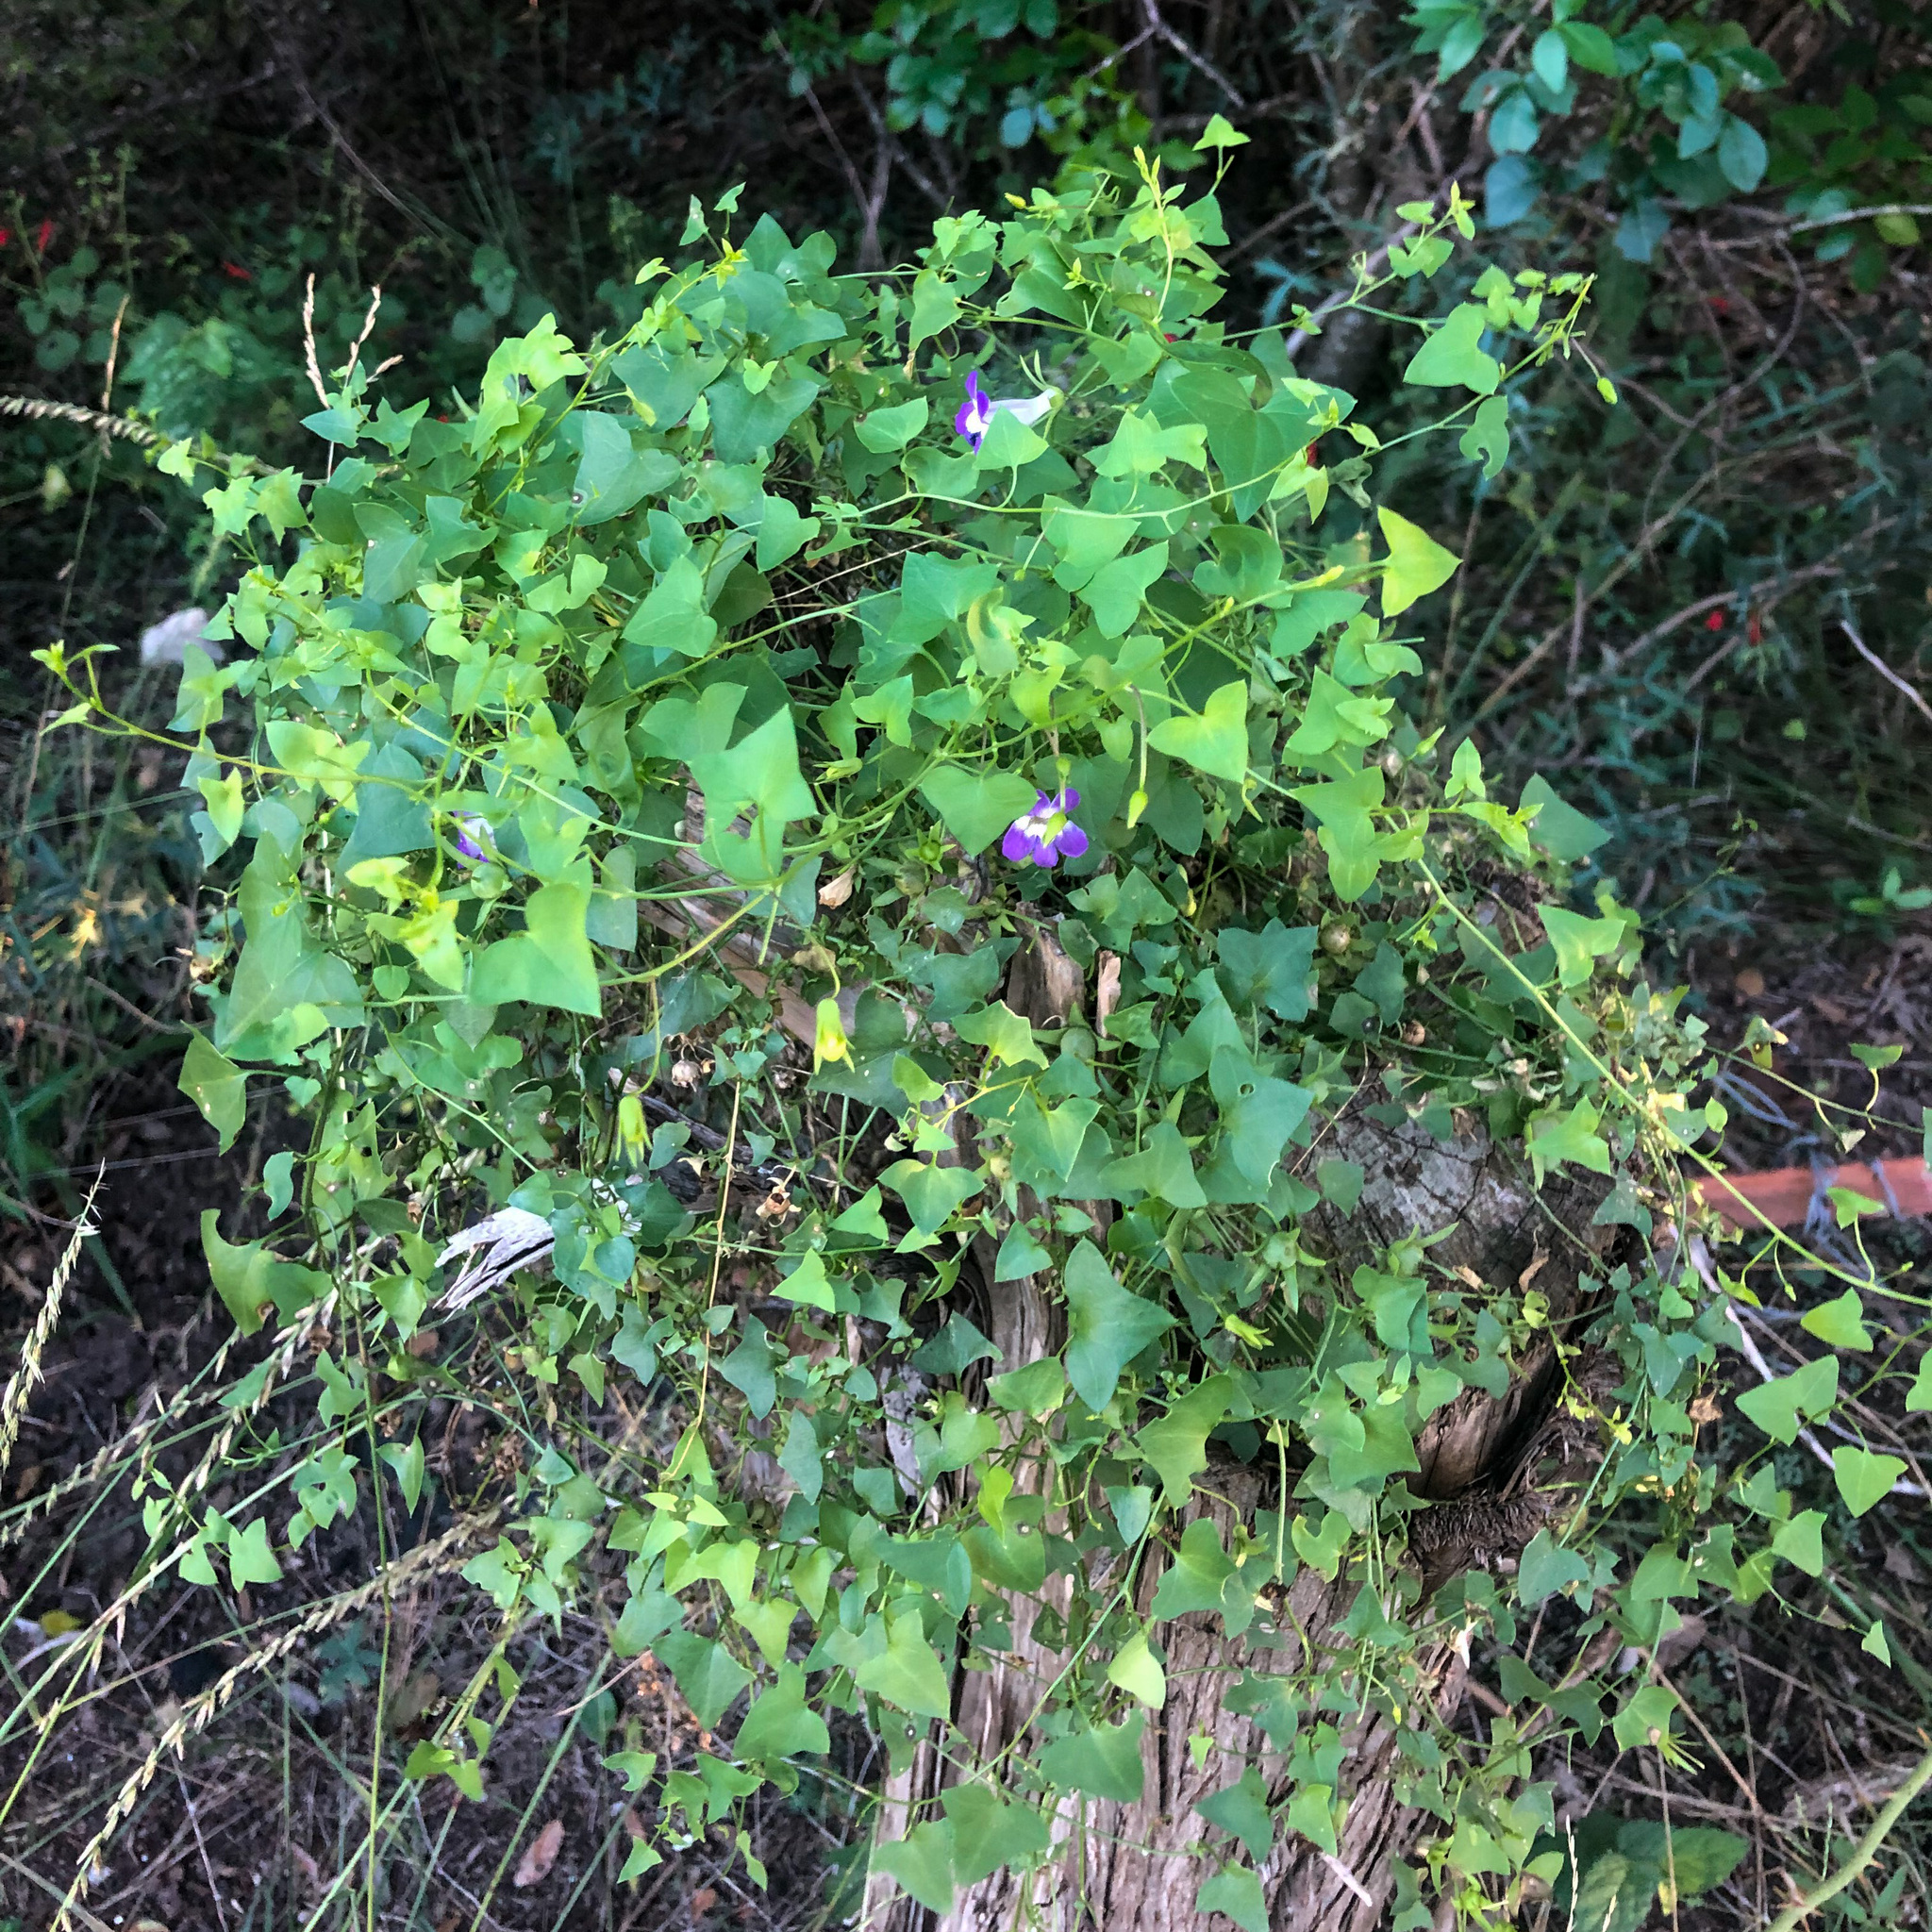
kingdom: Plantae
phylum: Tracheophyta
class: Magnoliopsida
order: Lamiales
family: Plantaginaceae
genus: Maurandella
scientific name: Maurandella antirrhiniflora
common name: Violet twining-snapdragon
